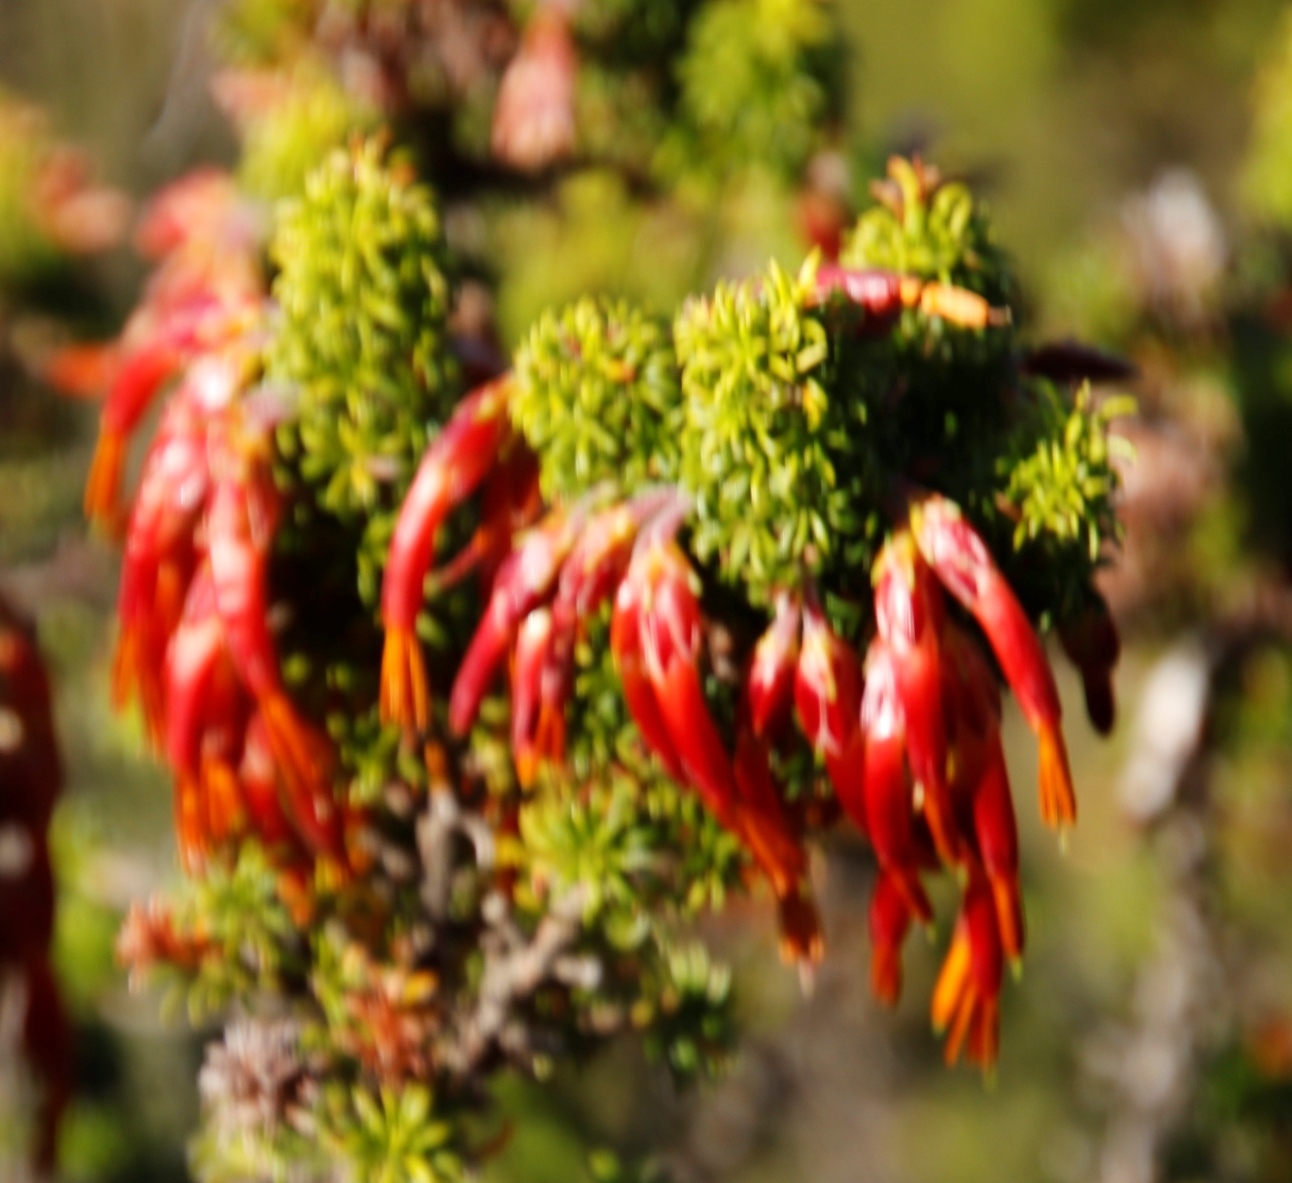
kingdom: Plantae
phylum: Tracheophyta
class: Magnoliopsida
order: Ericales
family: Ericaceae
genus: Erica
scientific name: Erica coccinea
